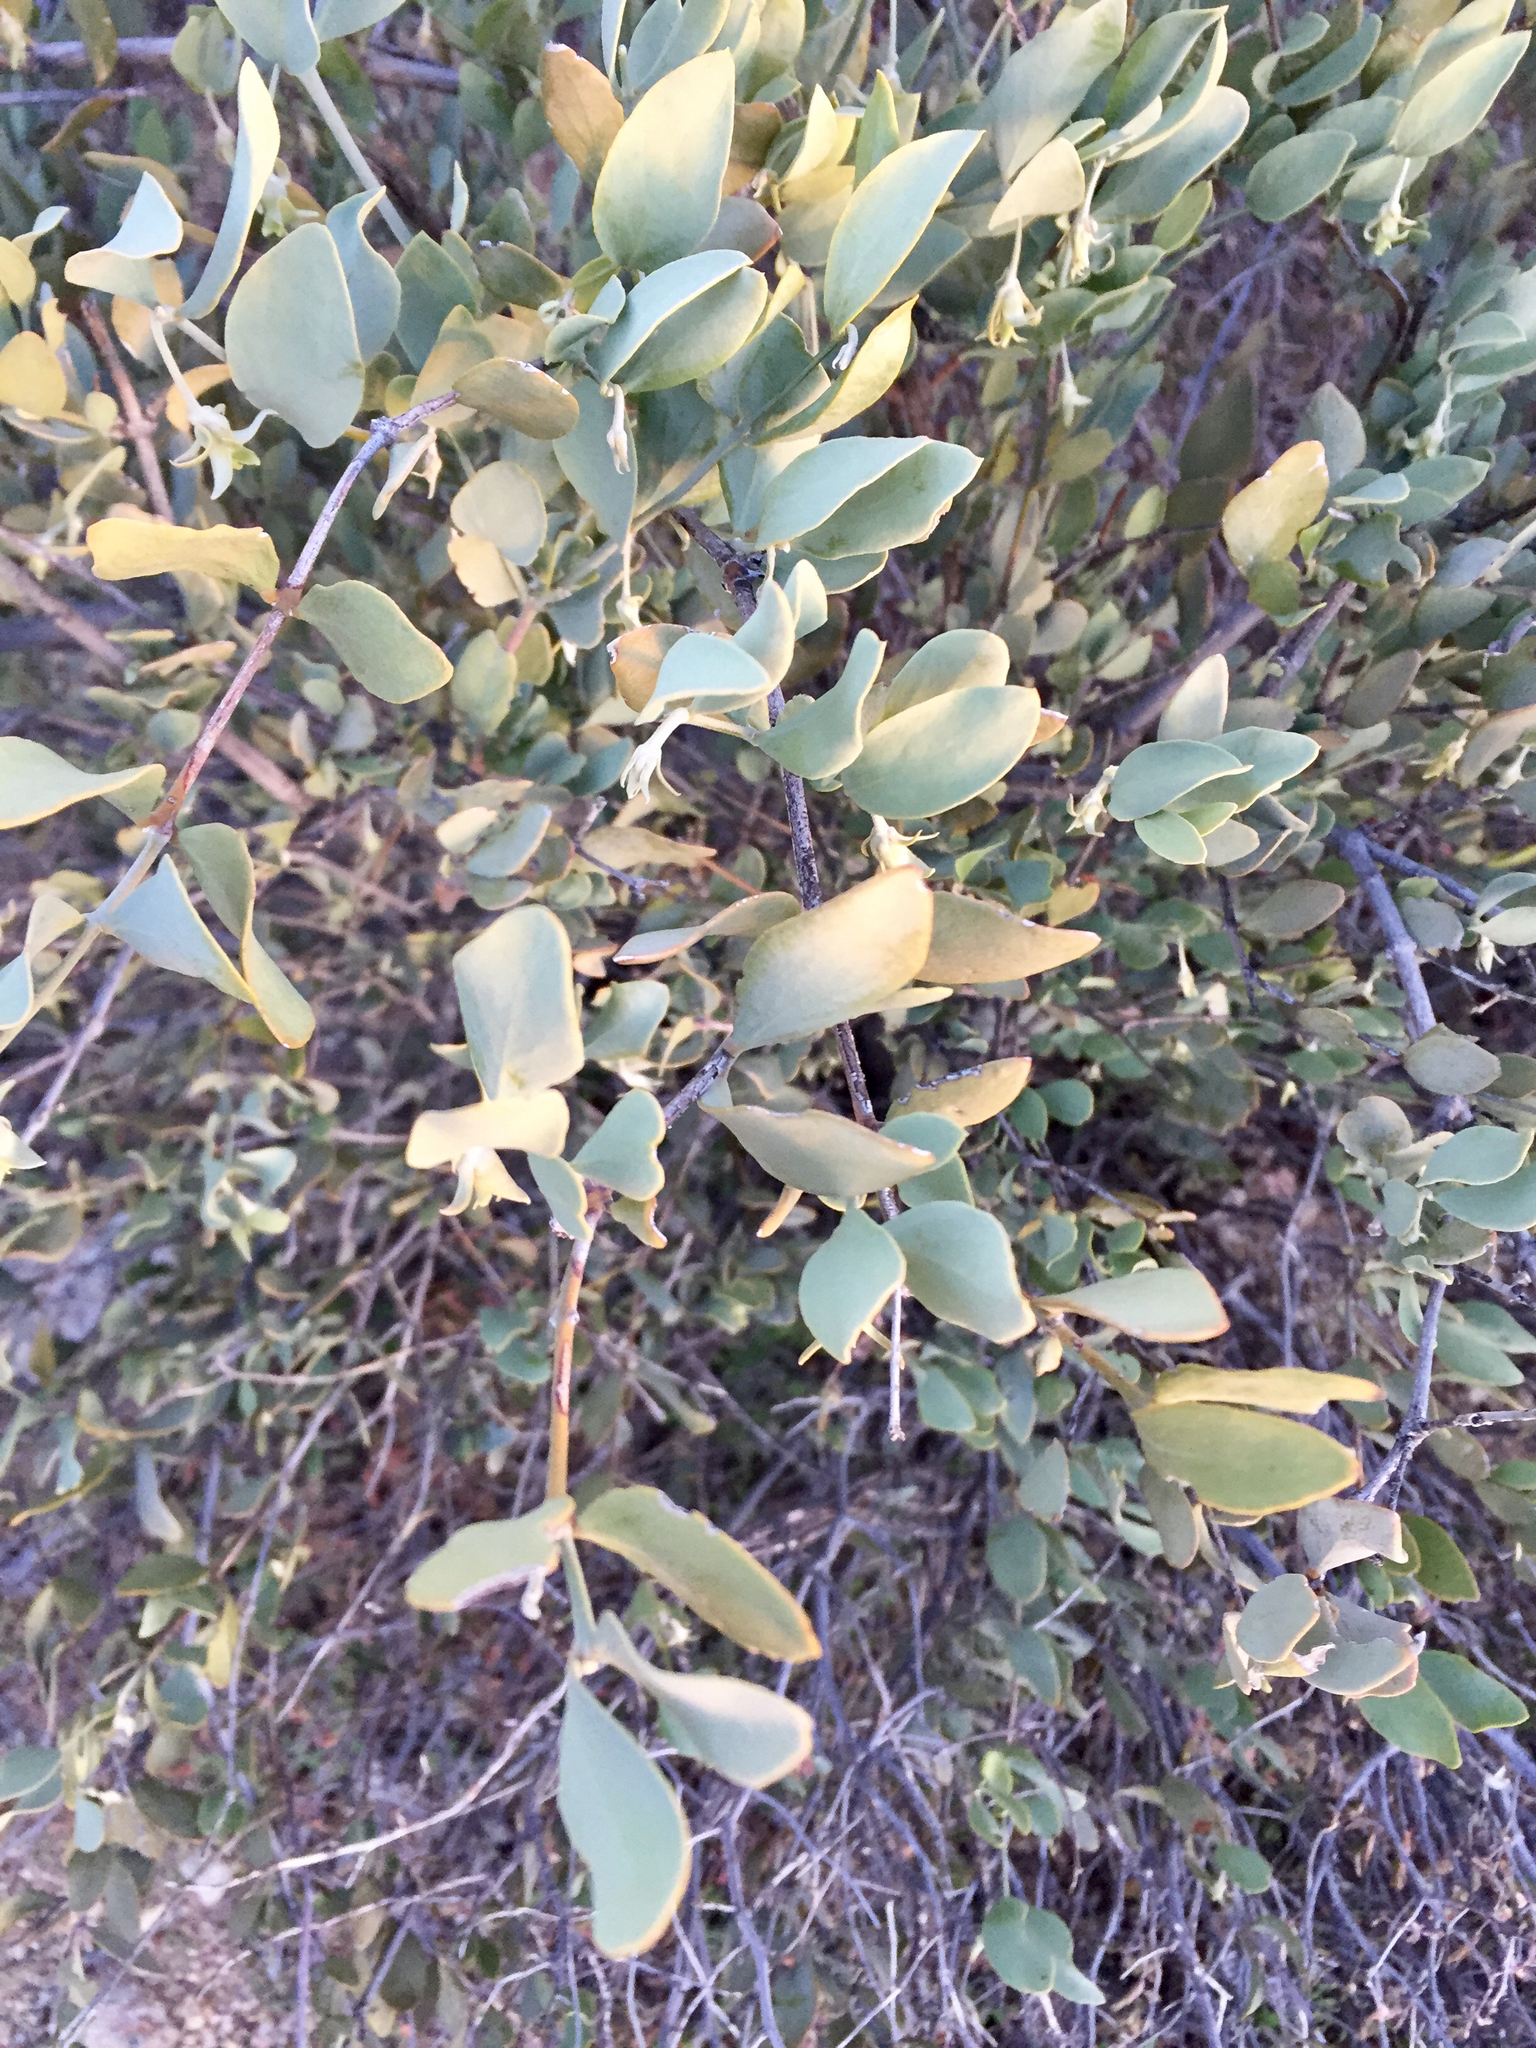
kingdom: Plantae
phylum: Tracheophyta
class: Magnoliopsida
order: Caryophyllales
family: Simmondsiaceae
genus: Simmondsia
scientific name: Simmondsia chinensis
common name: Jojoba
